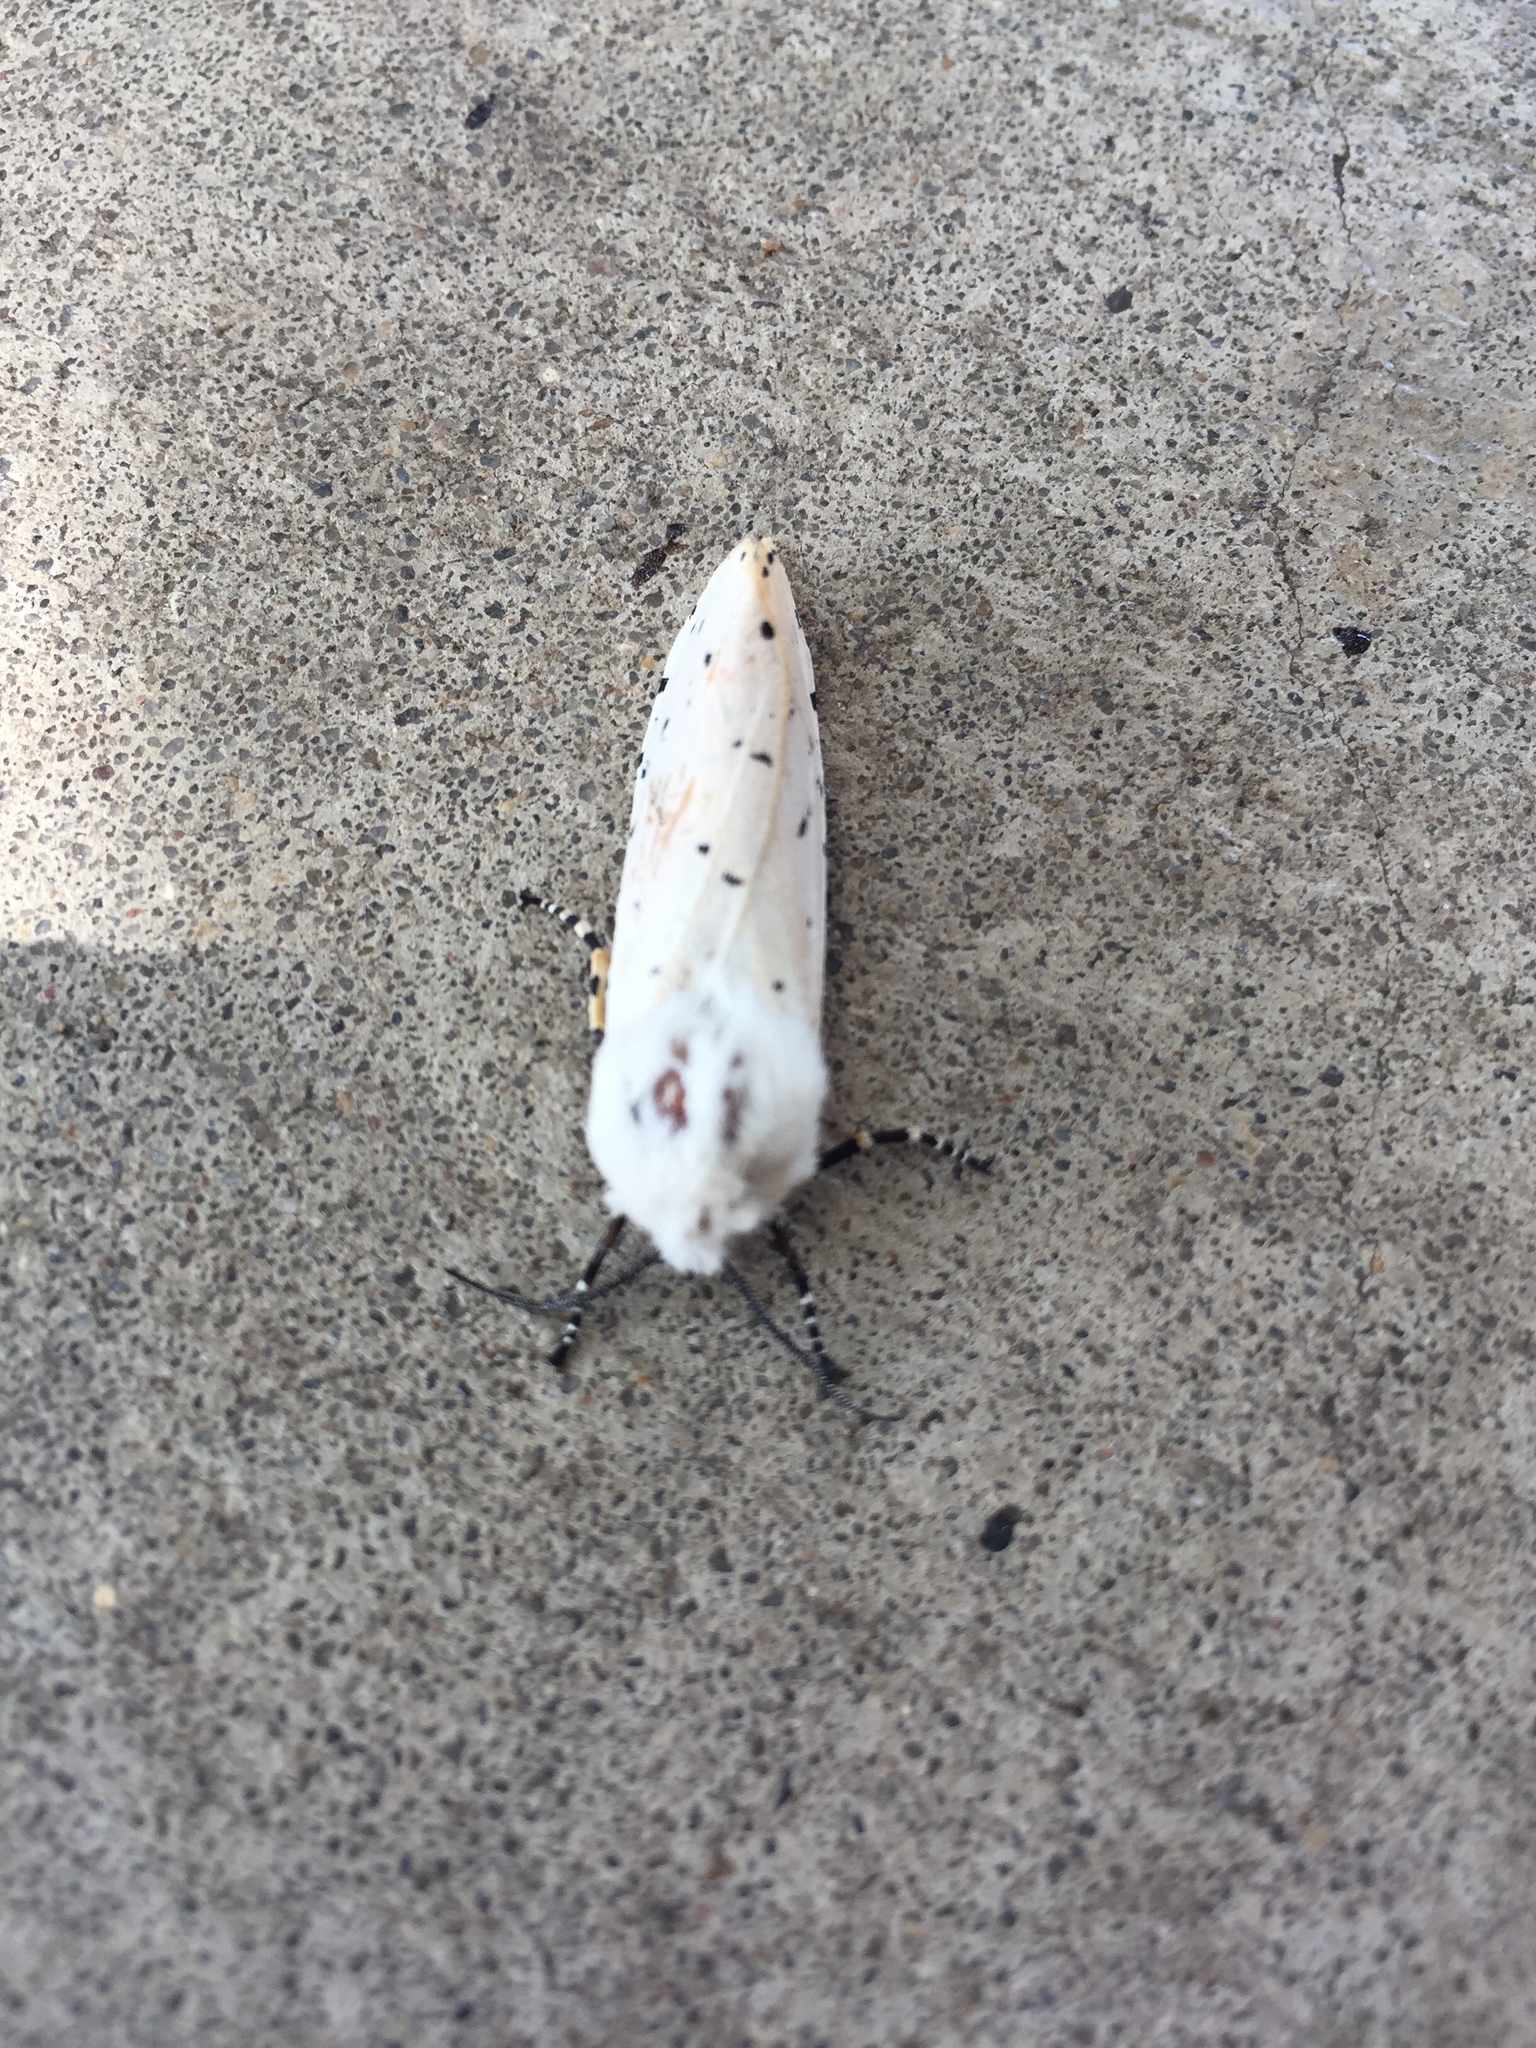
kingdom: Animalia
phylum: Arthropoda
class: Insecta
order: Lepidoptera
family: Erebidae
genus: Estigmene
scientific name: Estigmene acrea
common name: Salt marsh moth
